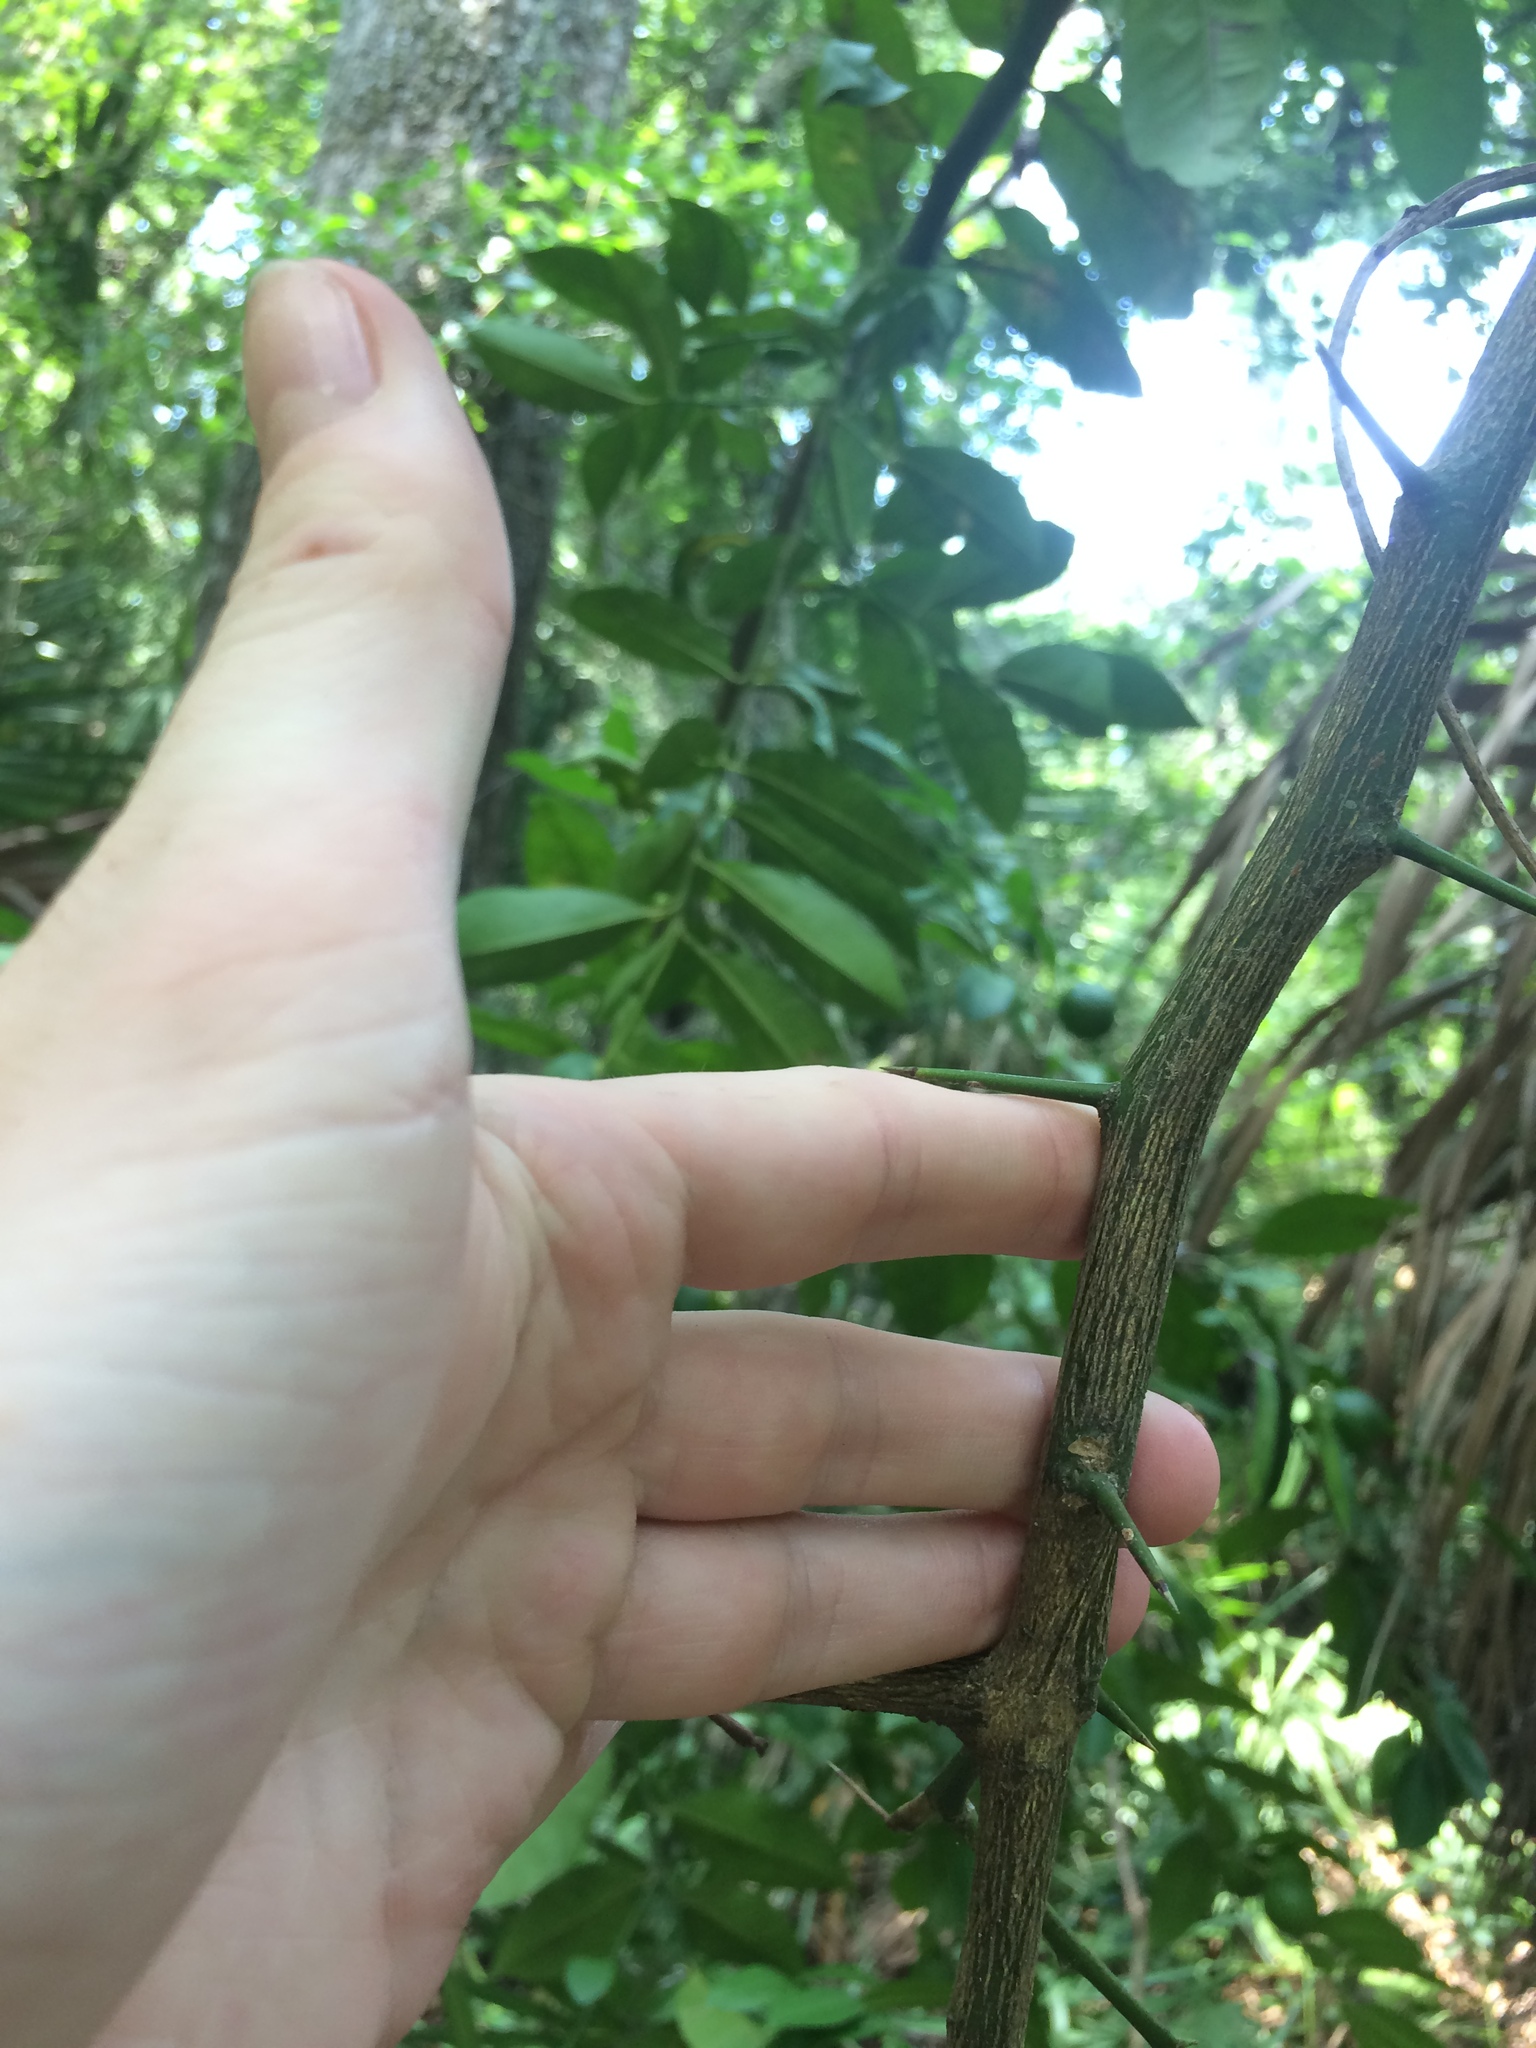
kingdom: Plantae
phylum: Tracheophyta
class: Magnoliopsida
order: Sapindales
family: Rutaceae
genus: Citrus
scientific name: Citrus limon
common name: Lemon
